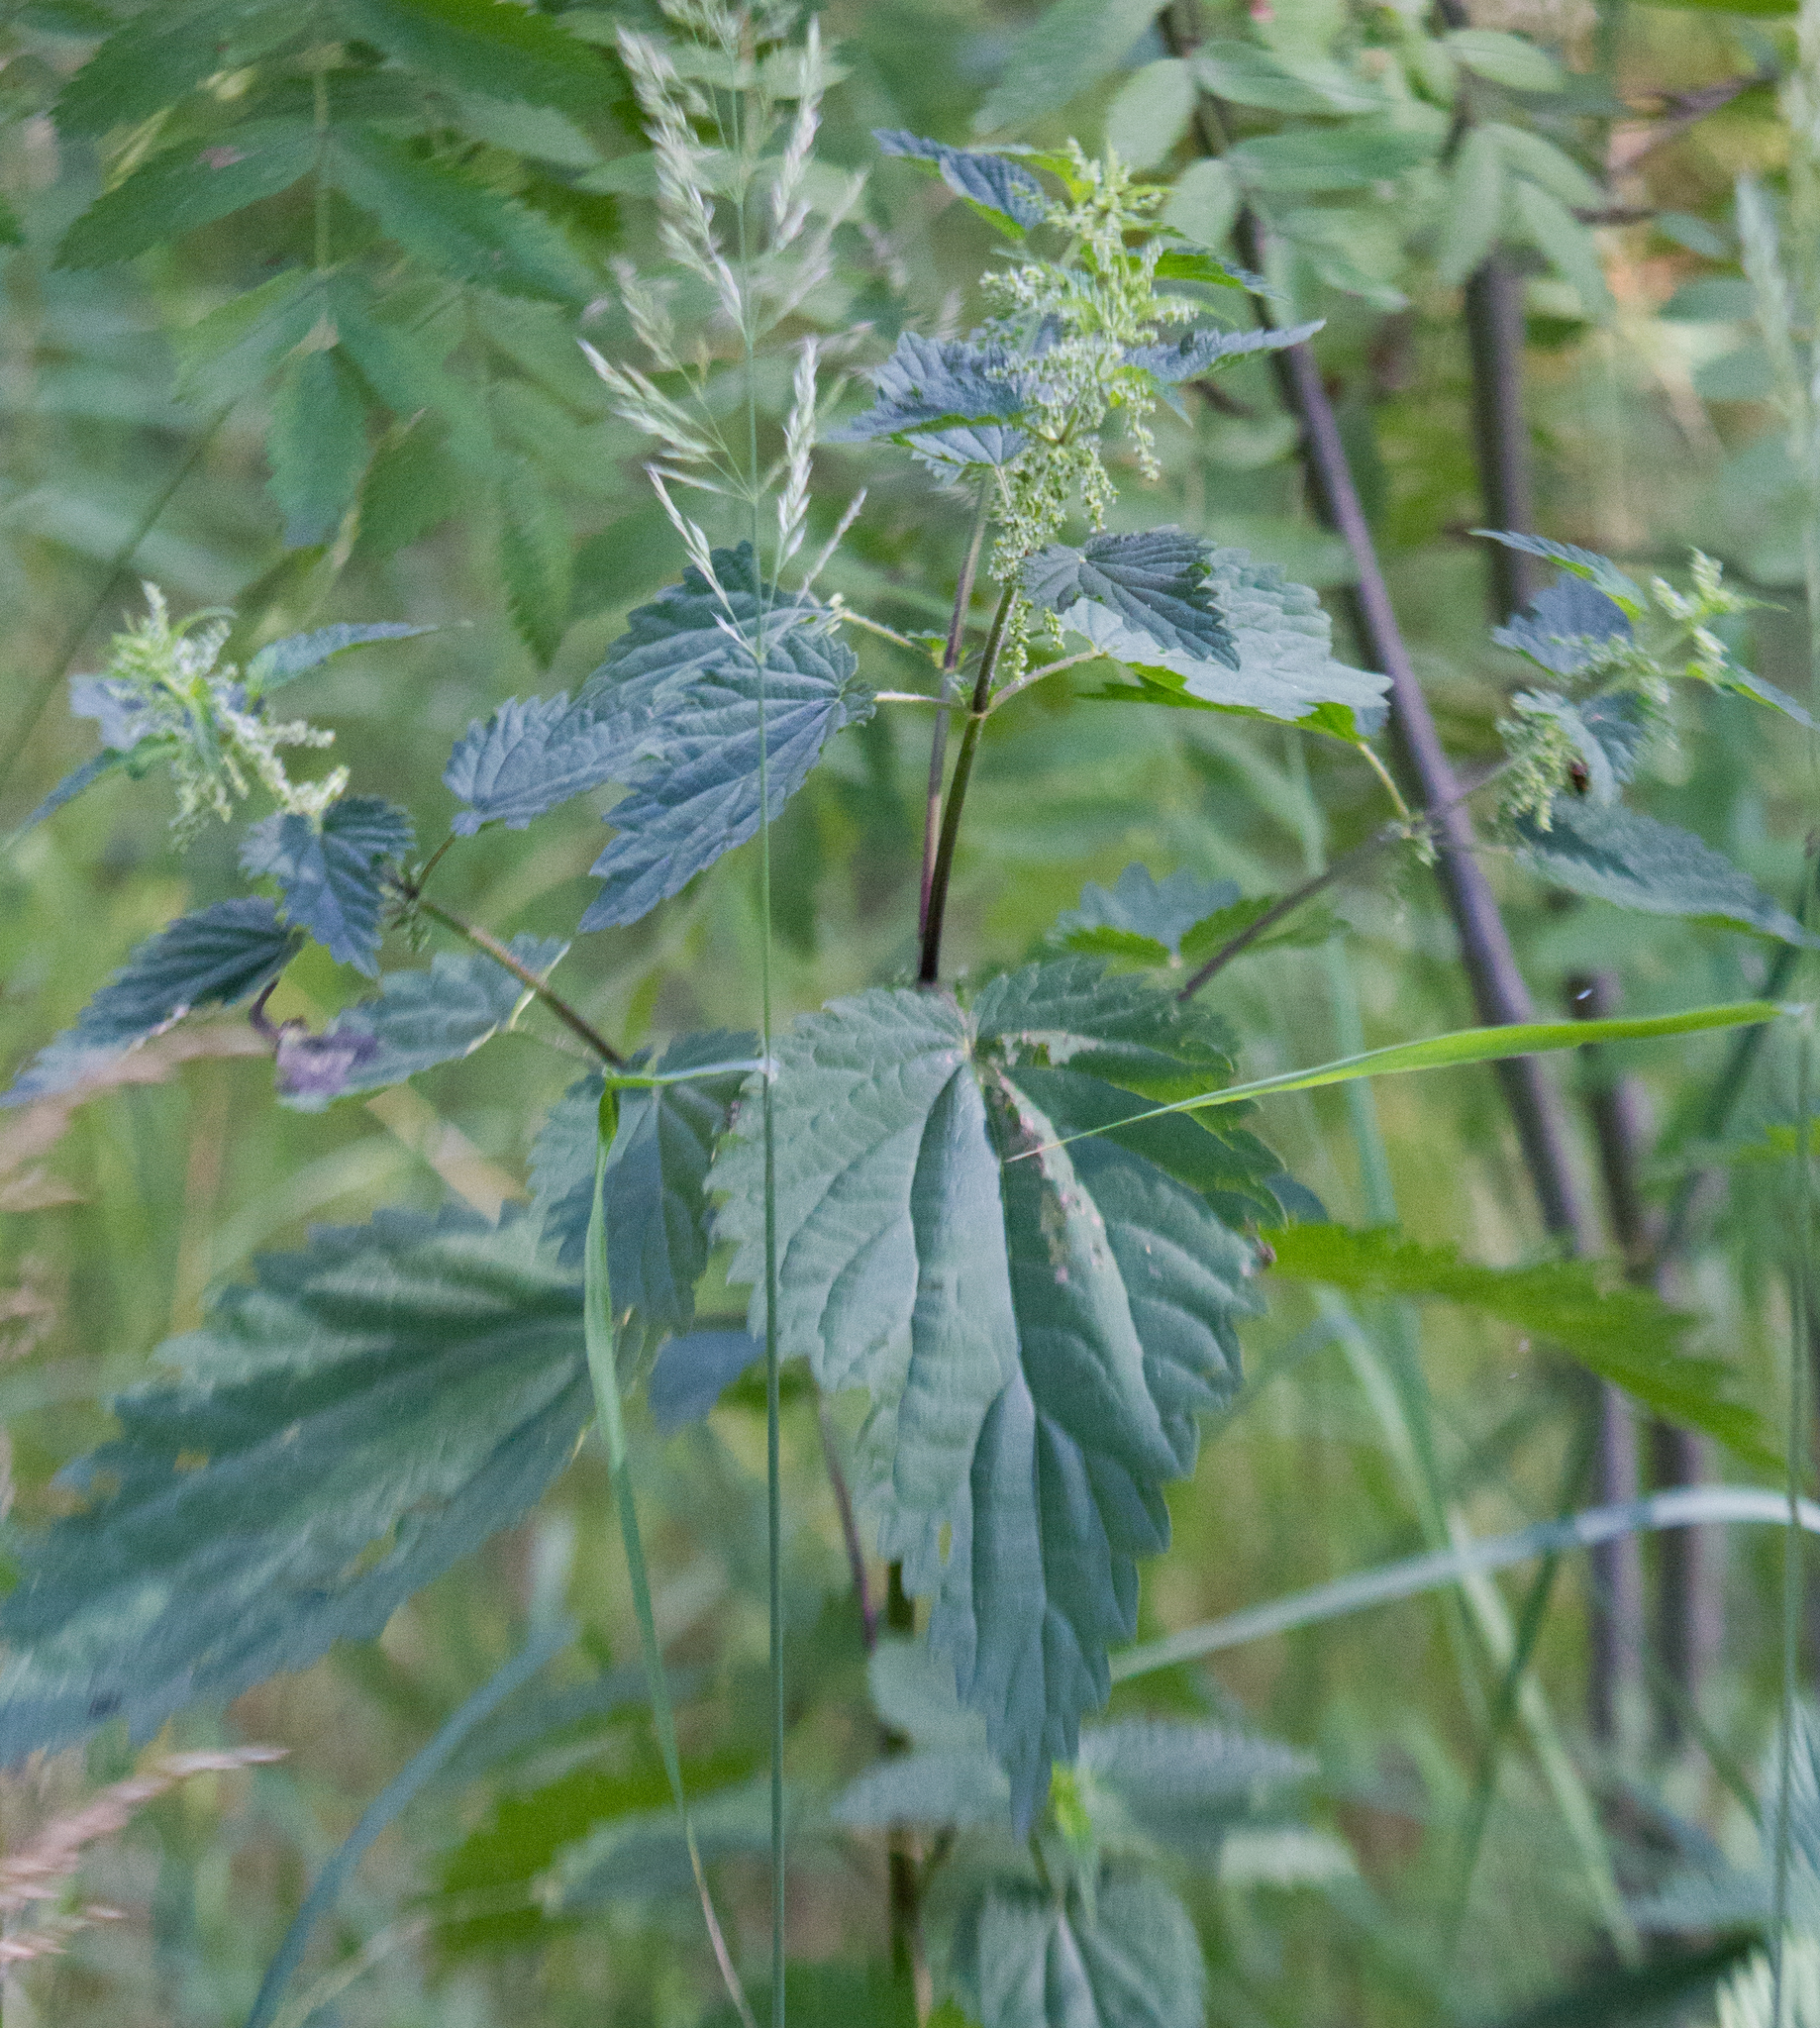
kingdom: Plantae
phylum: Tracheophyta
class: Magnoliopsida
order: Rosales
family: Urticaceae
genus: Urtica
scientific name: Urtica dioica
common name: Common nettle
